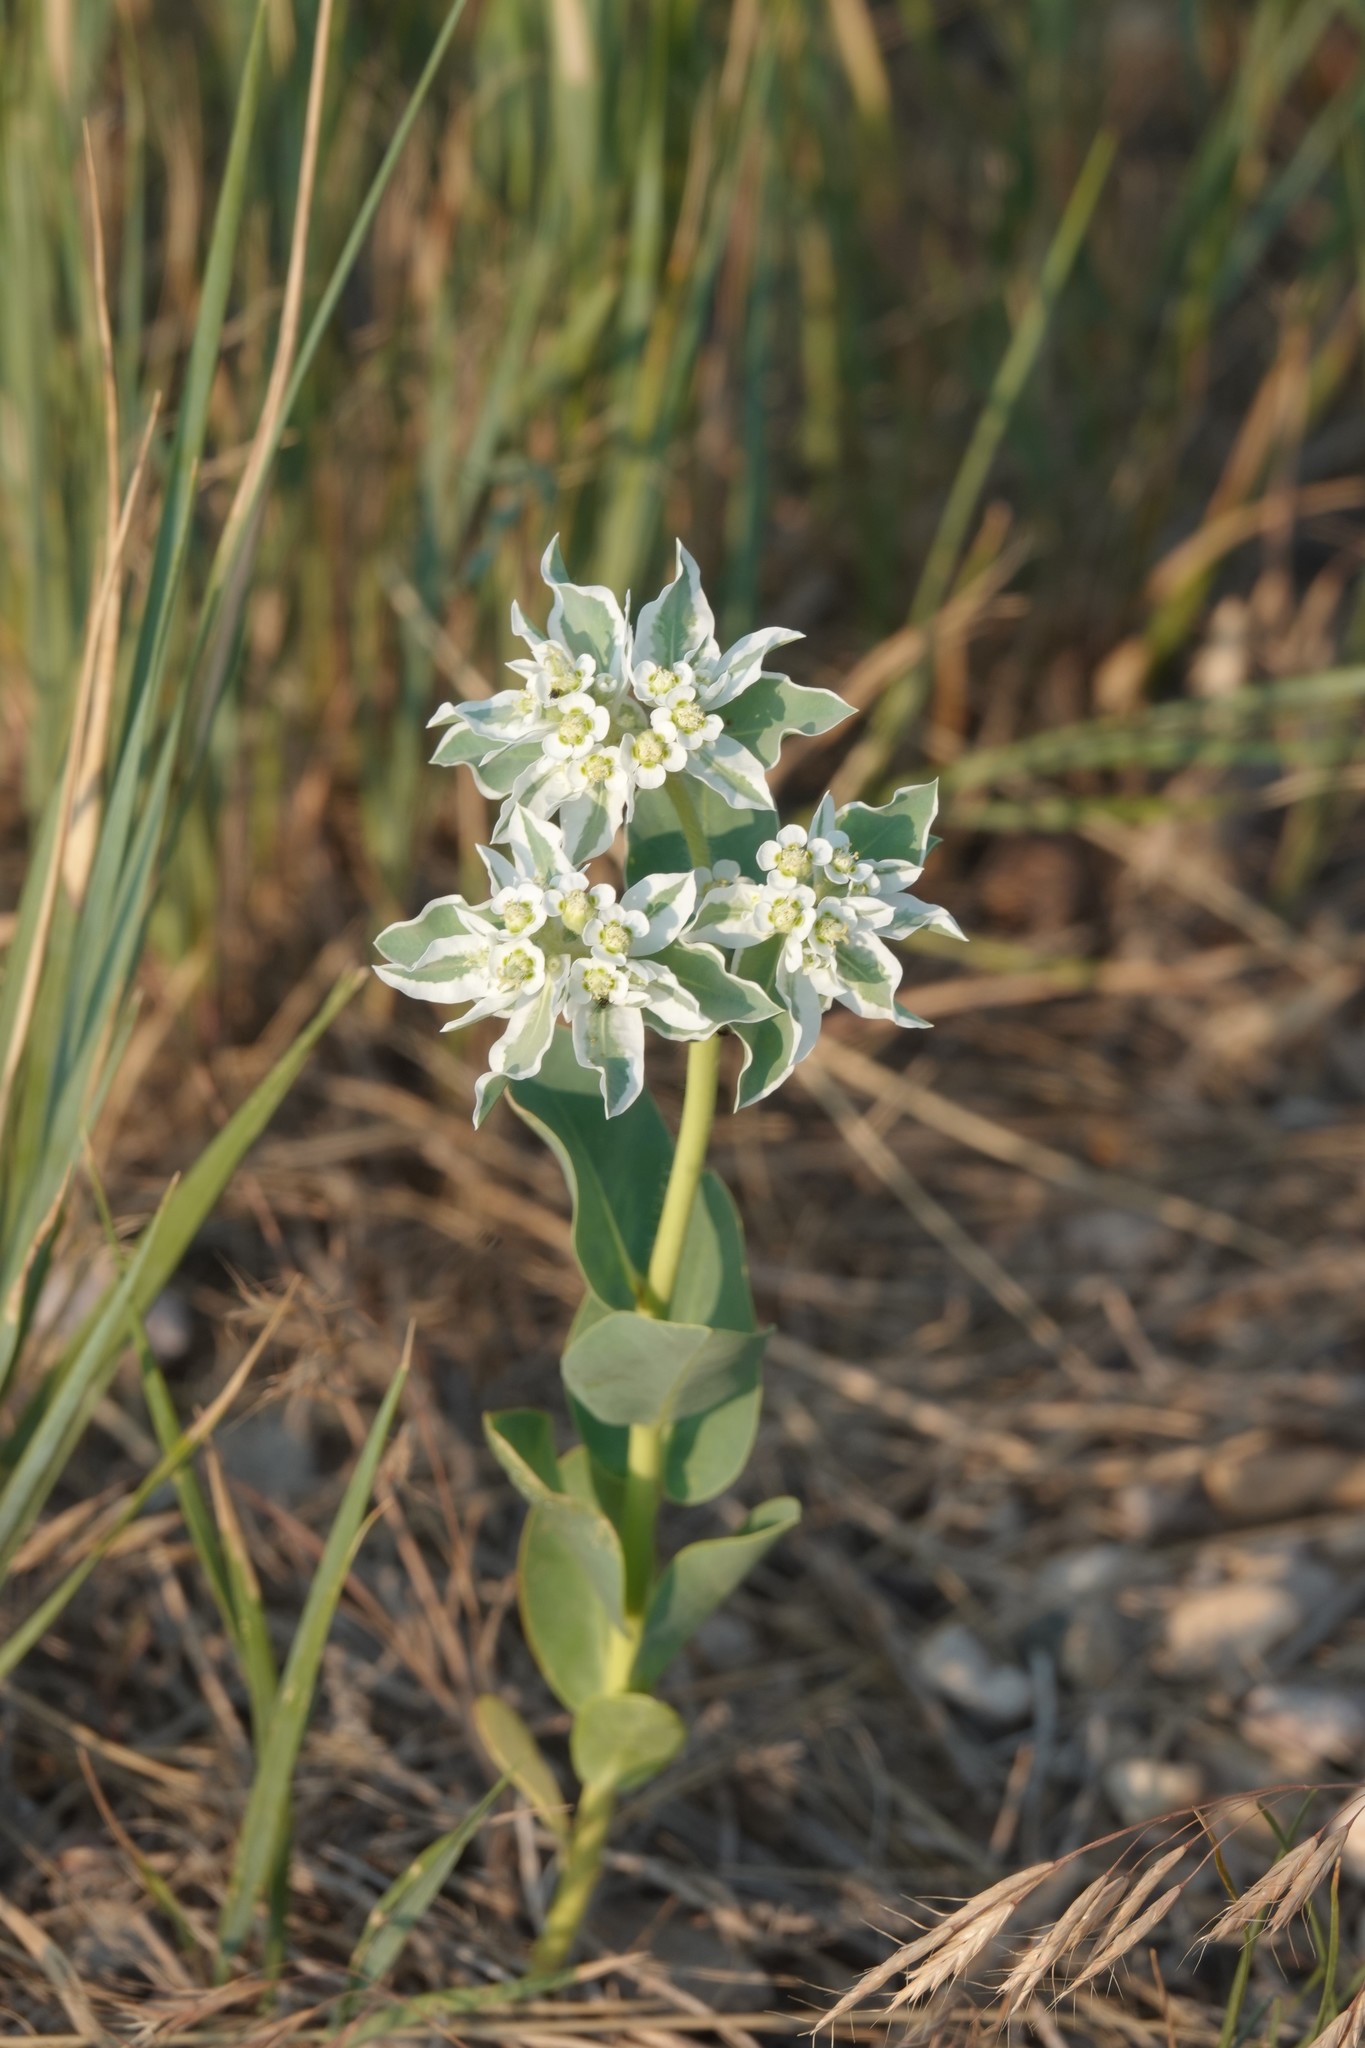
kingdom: Plantae
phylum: Tracheophyta
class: Magnoliopsida
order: Malpighiales
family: Euphorbiaceae
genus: Euphorbia
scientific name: Euphorbia marginata
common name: Ghostweed
